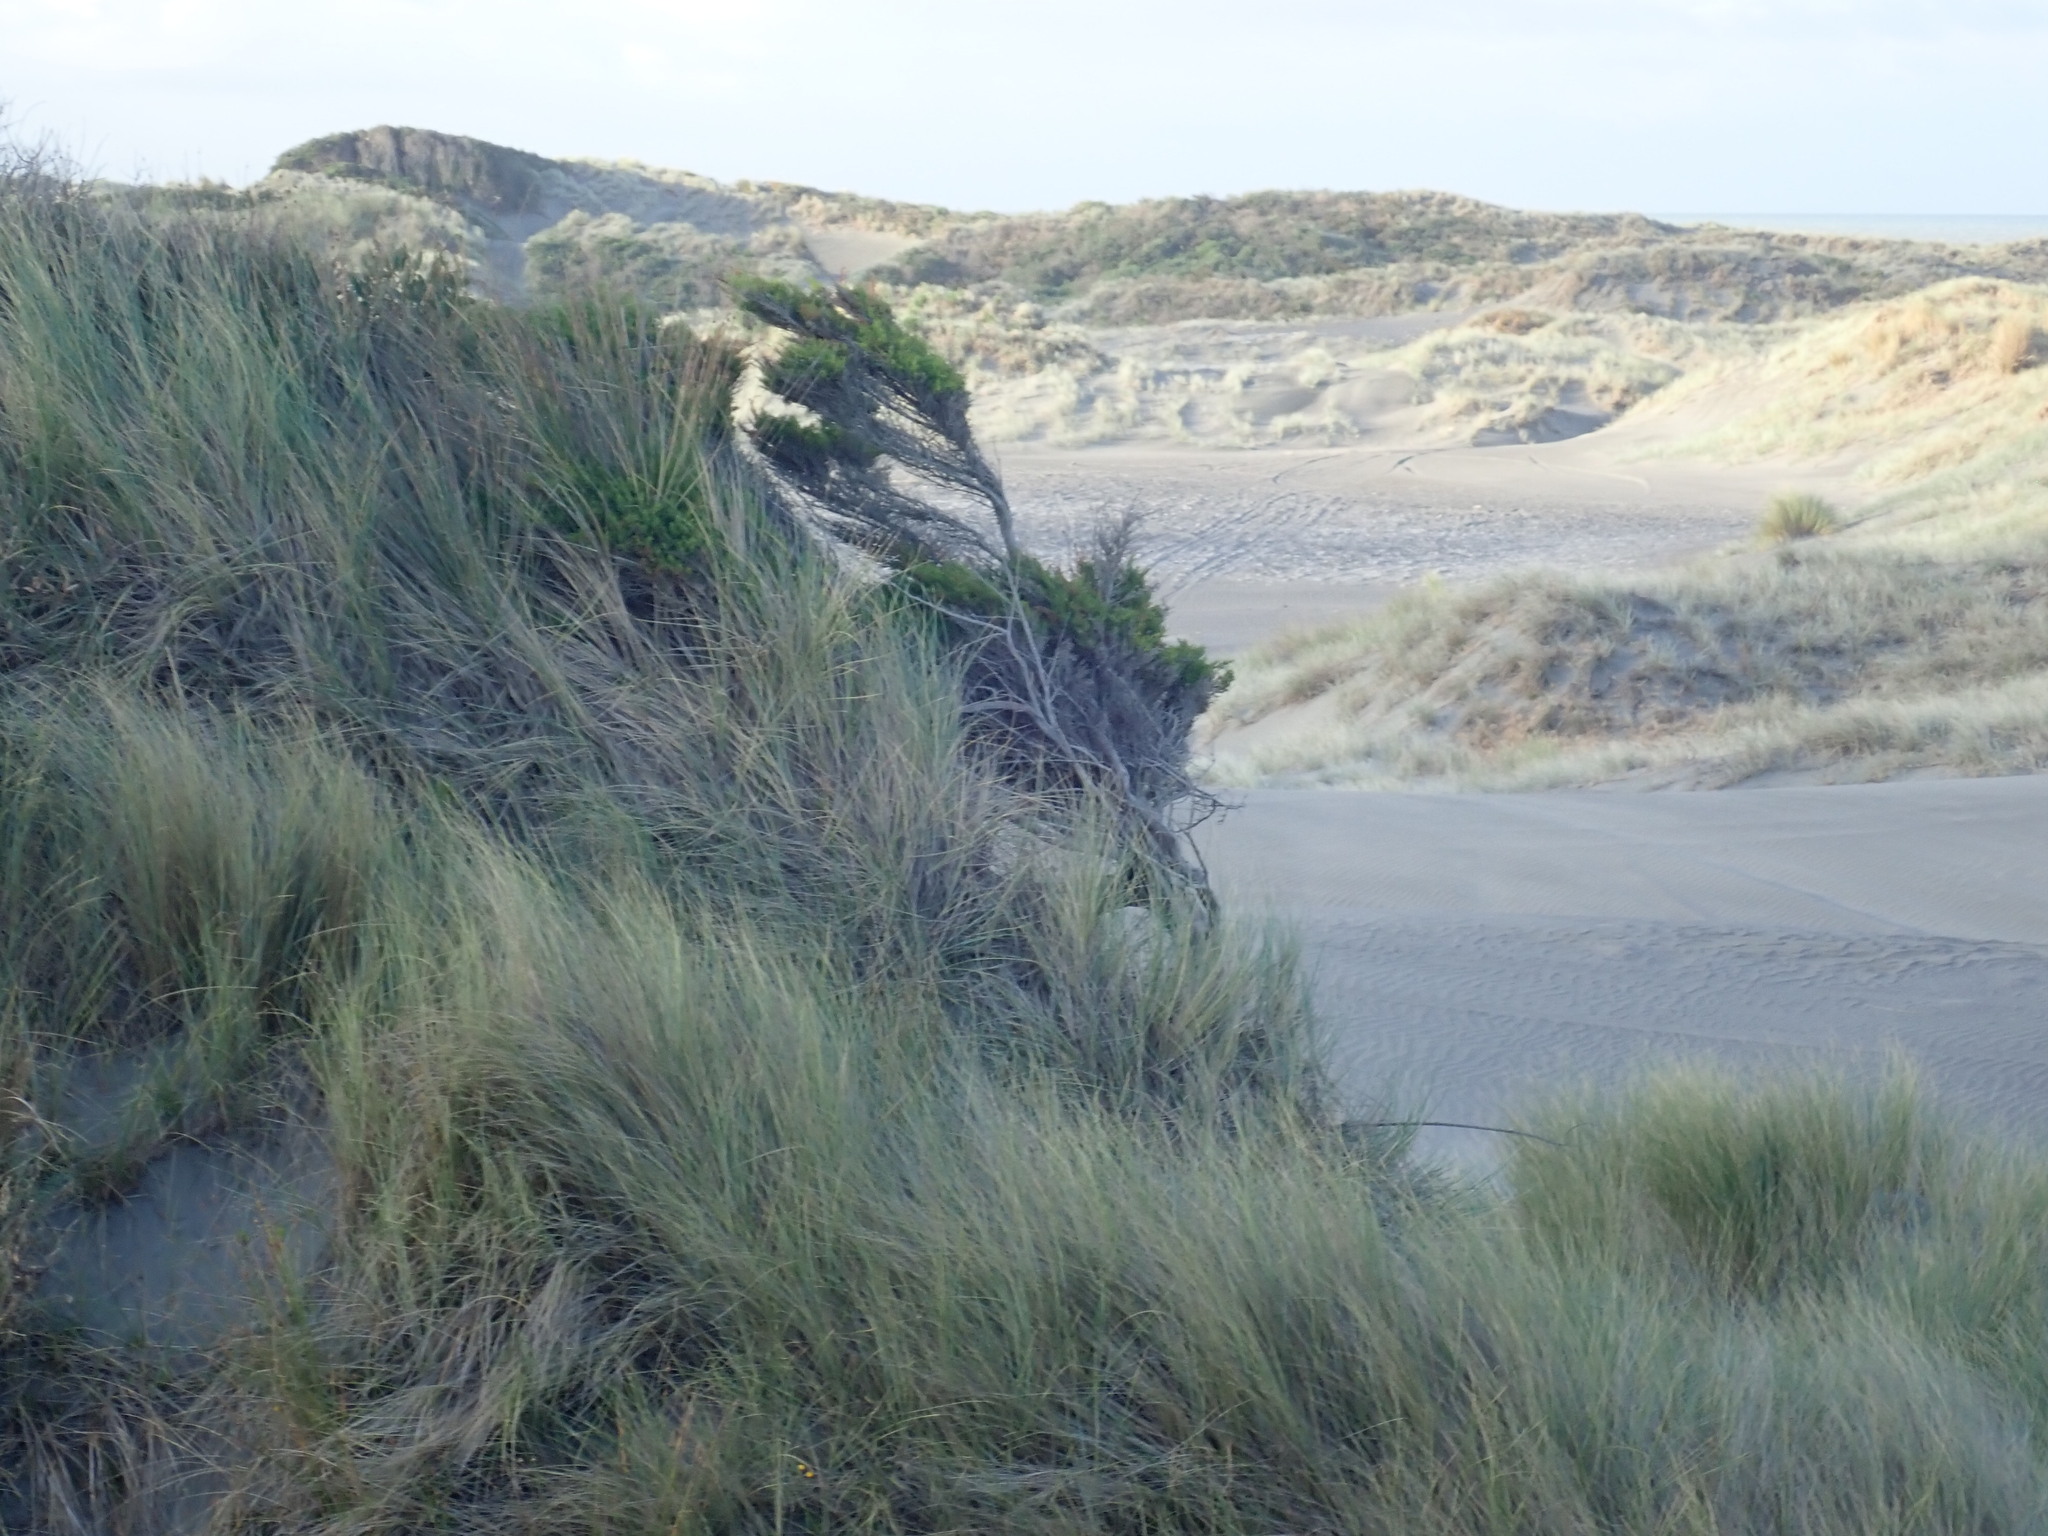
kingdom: Plantae
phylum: Tracheophyta
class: Pinopsida
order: Pinales
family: Cupressaceae
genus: Cupressus
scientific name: Cupressus macrocarpa
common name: Monterey cypress
